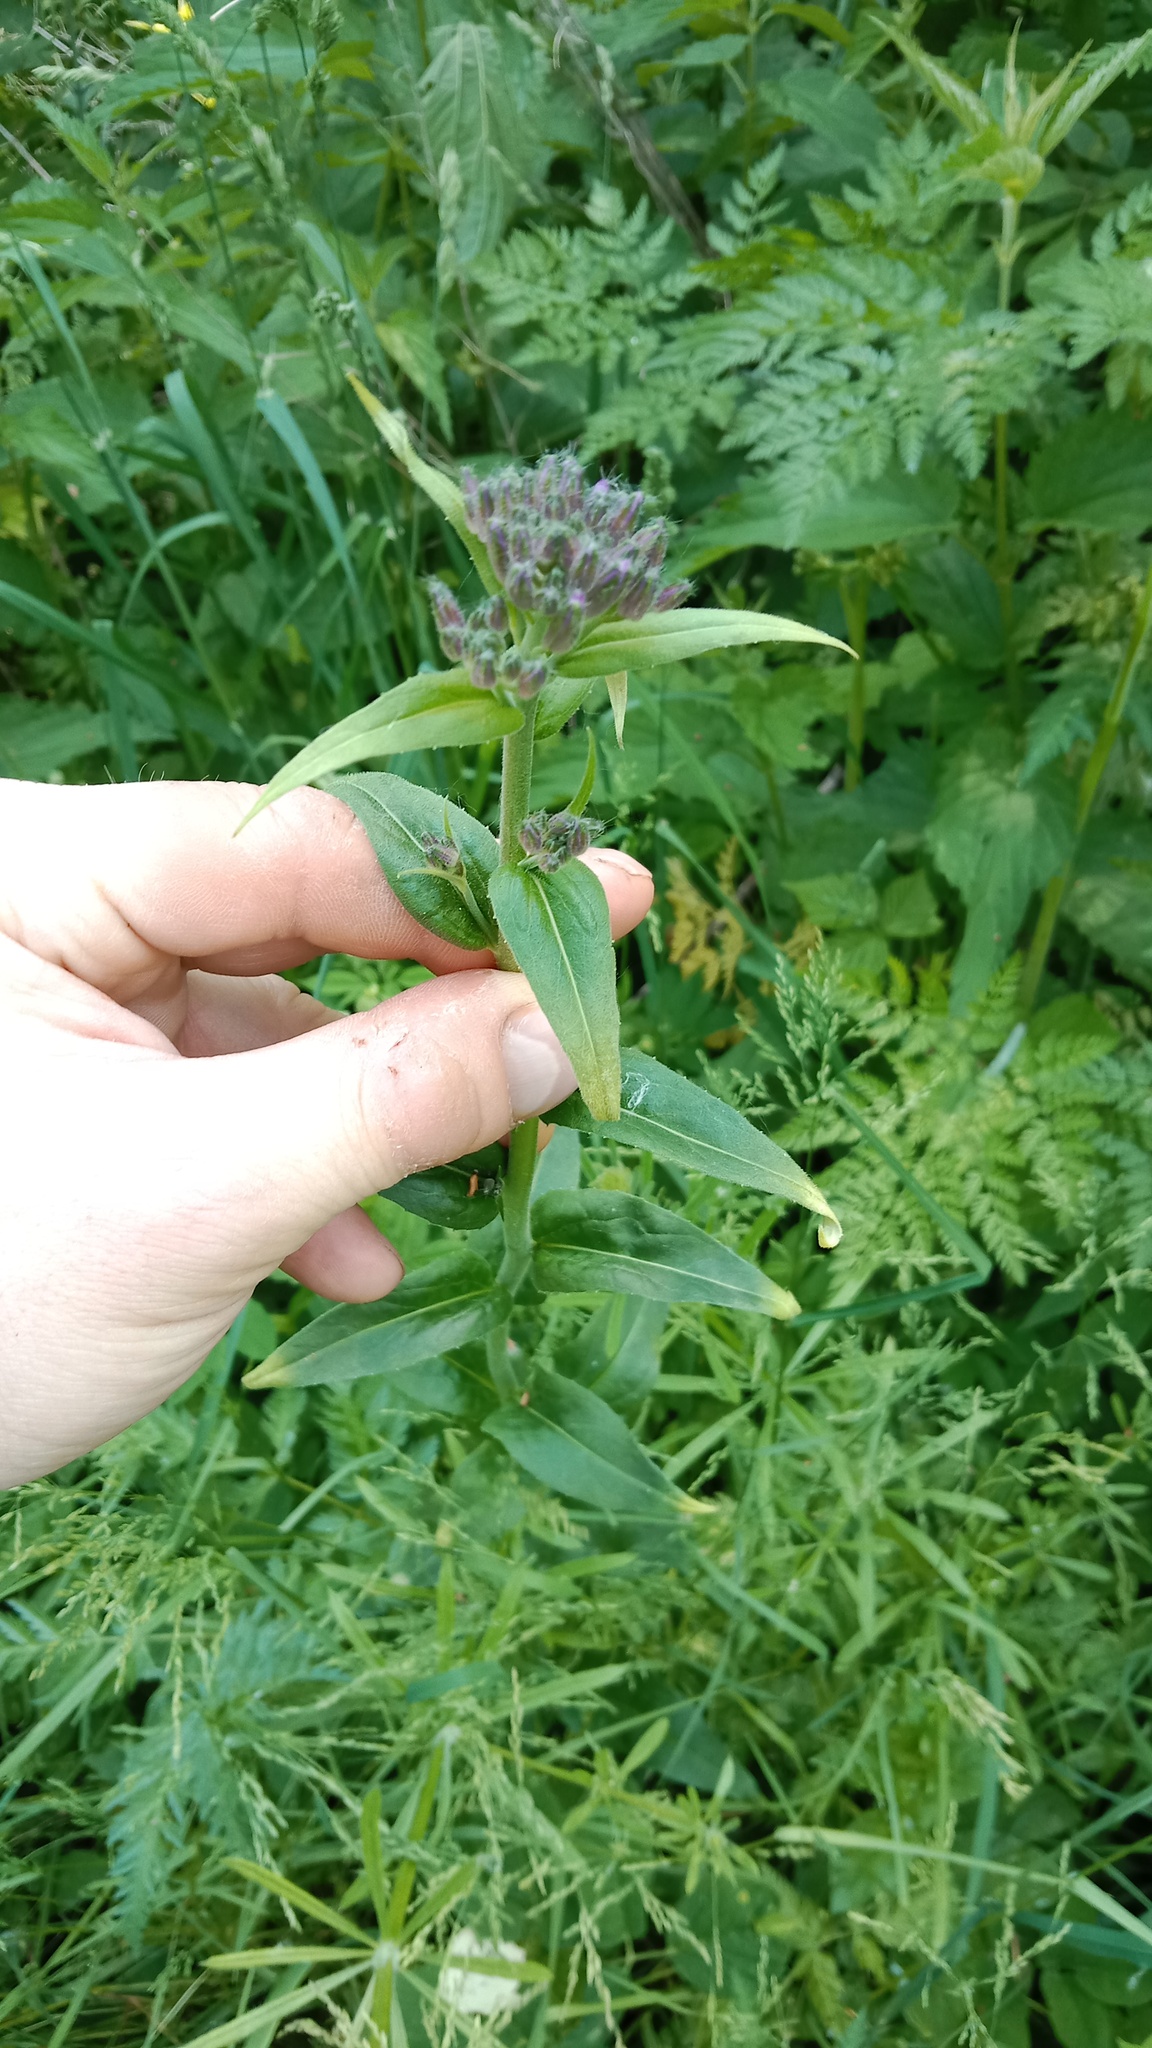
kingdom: Plantae
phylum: Tracheophyta
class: Magnoliopsida
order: Brassicales
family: Brassicaceae
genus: Hesperis
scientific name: Hesperis matronalis
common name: Dame's-violet
